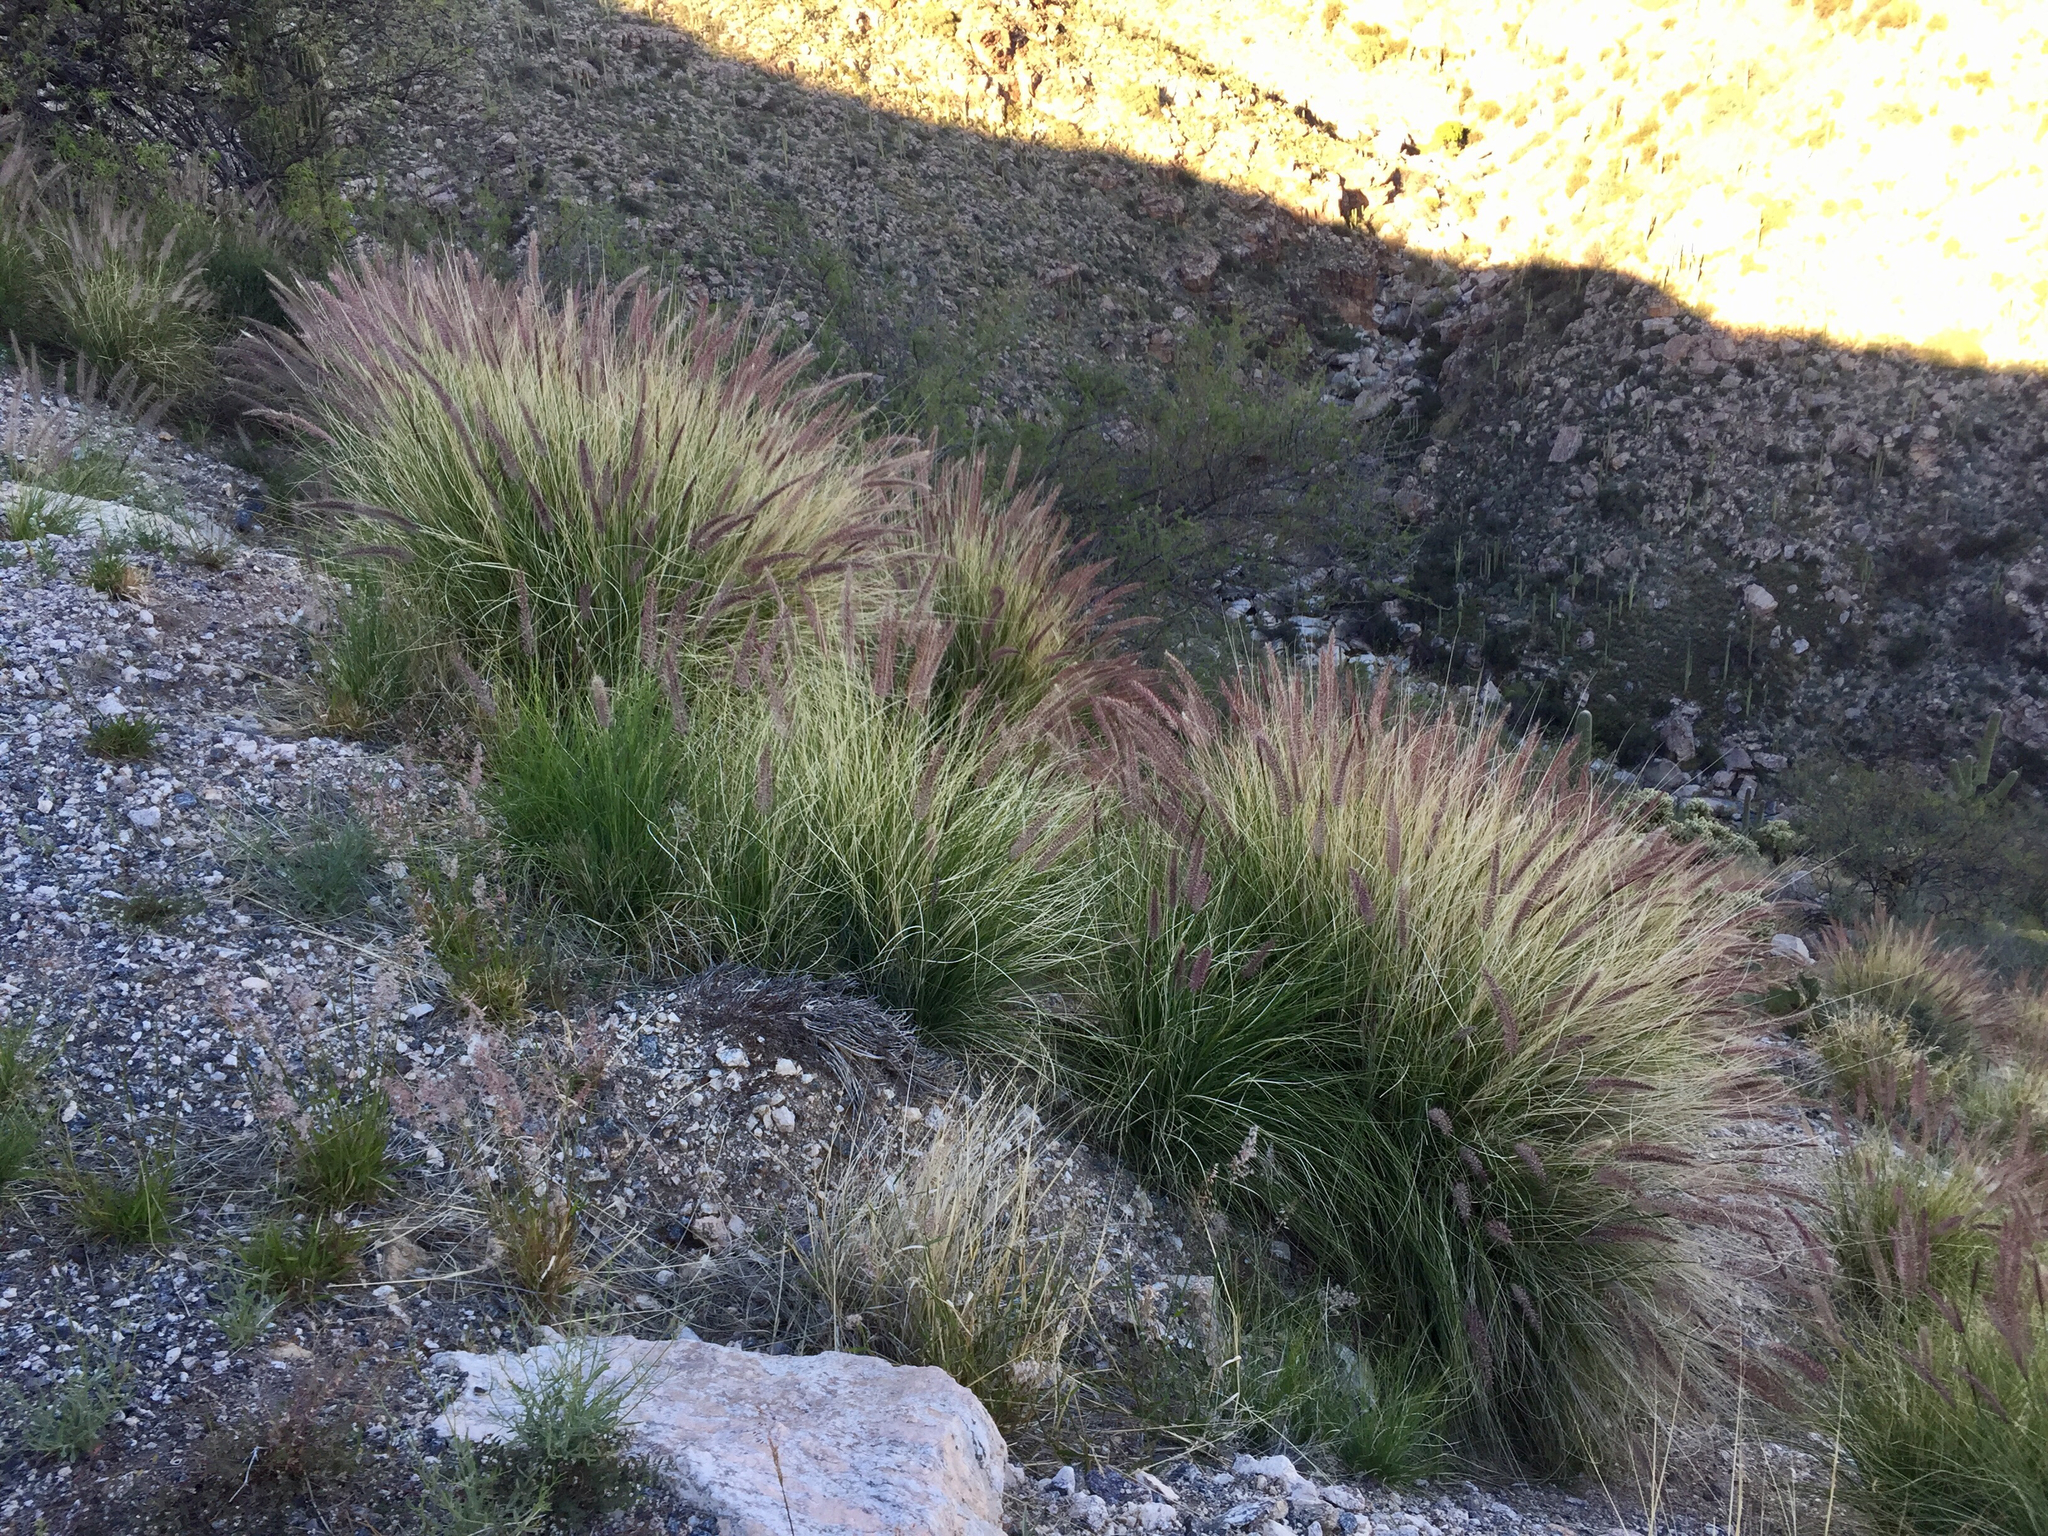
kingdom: Plantae
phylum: Tracheophyta
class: Liliopsida
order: Poales
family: Poaceae
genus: Cenchrus
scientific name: Cenchrus setaceus
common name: Crimson fountaingrass
